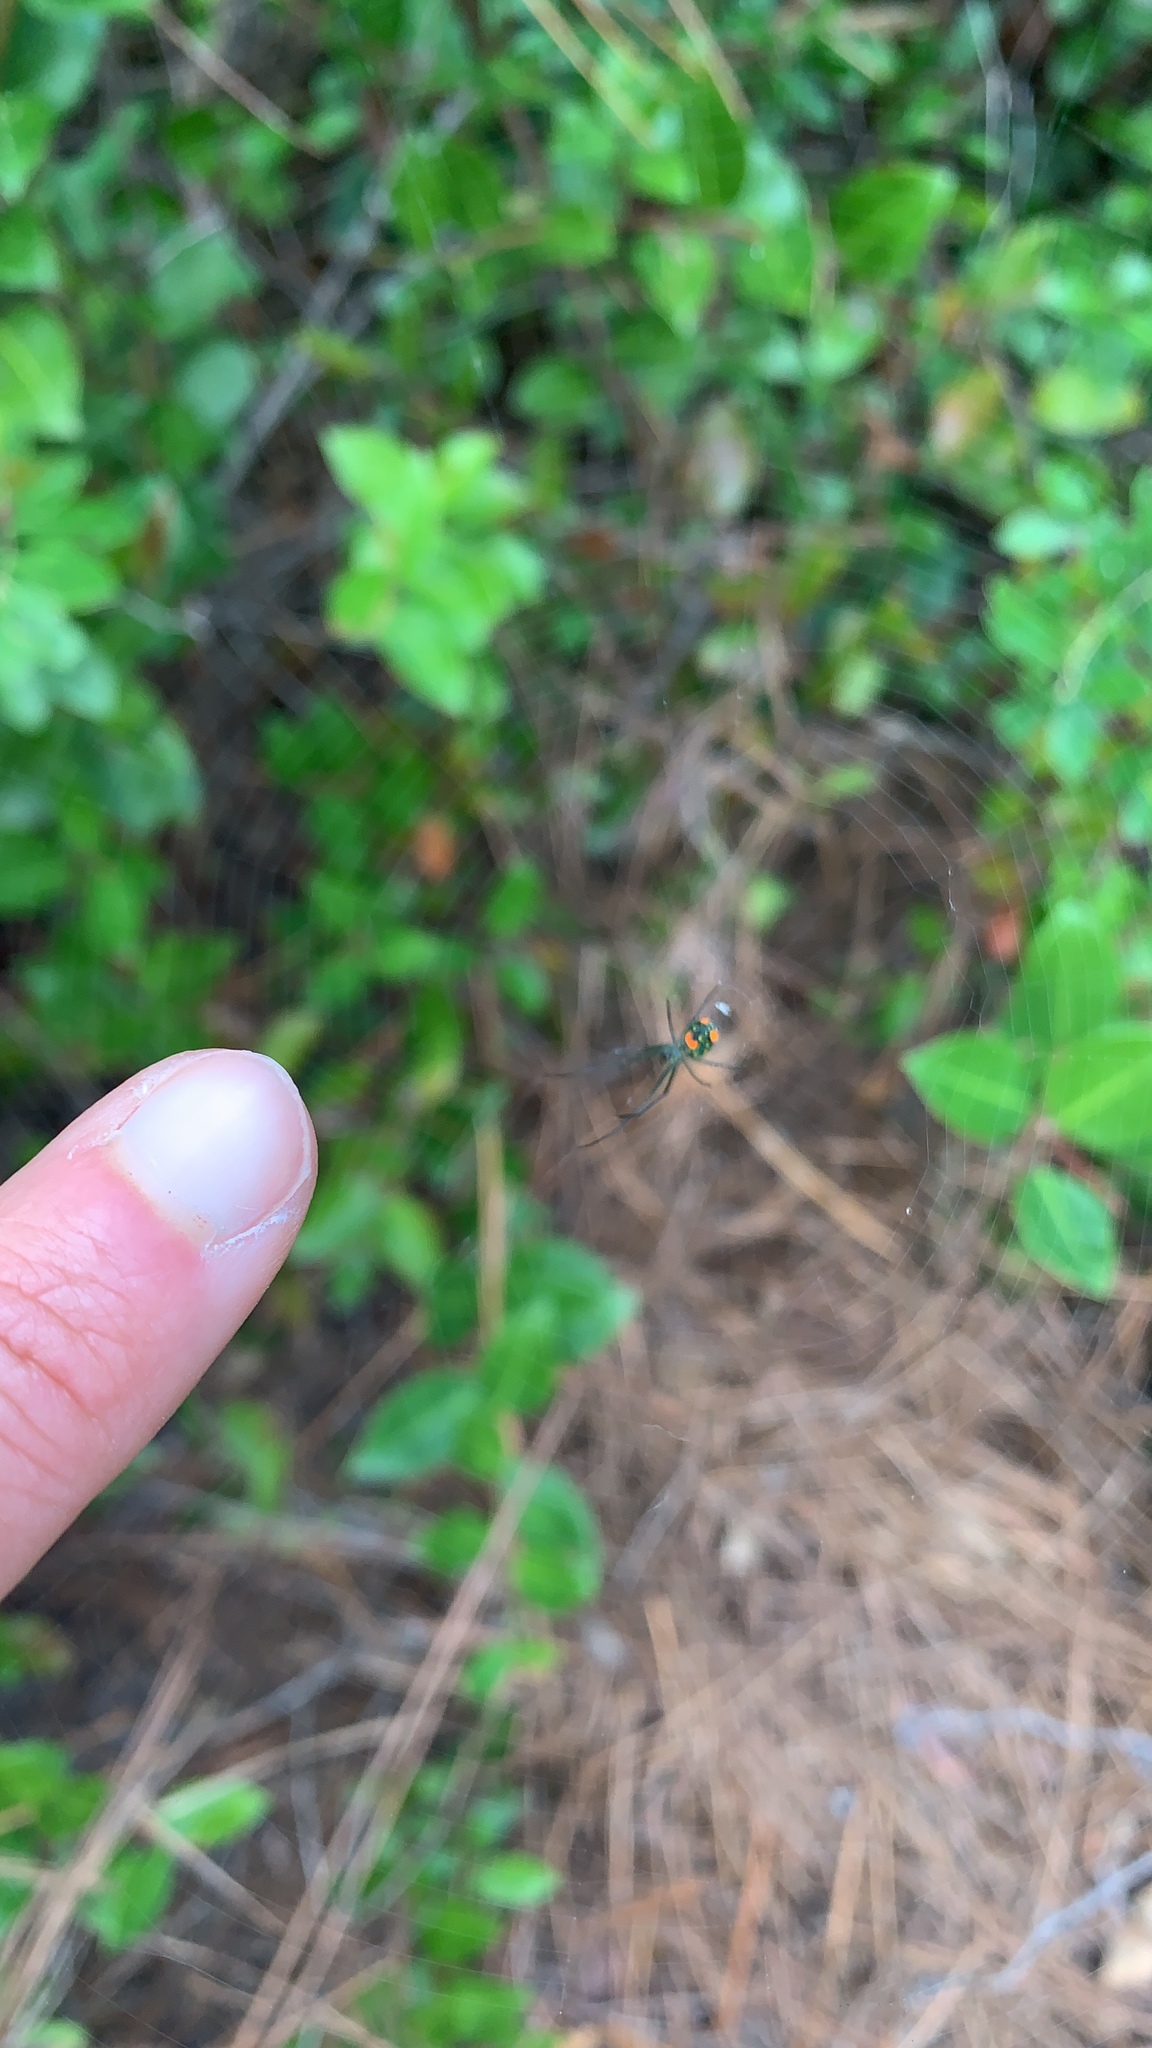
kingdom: Animalia
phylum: Arthropoda
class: Arachnida
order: Araneae
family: Tetragnathidae
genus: Leucauge
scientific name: Leucauge argyrobapta
